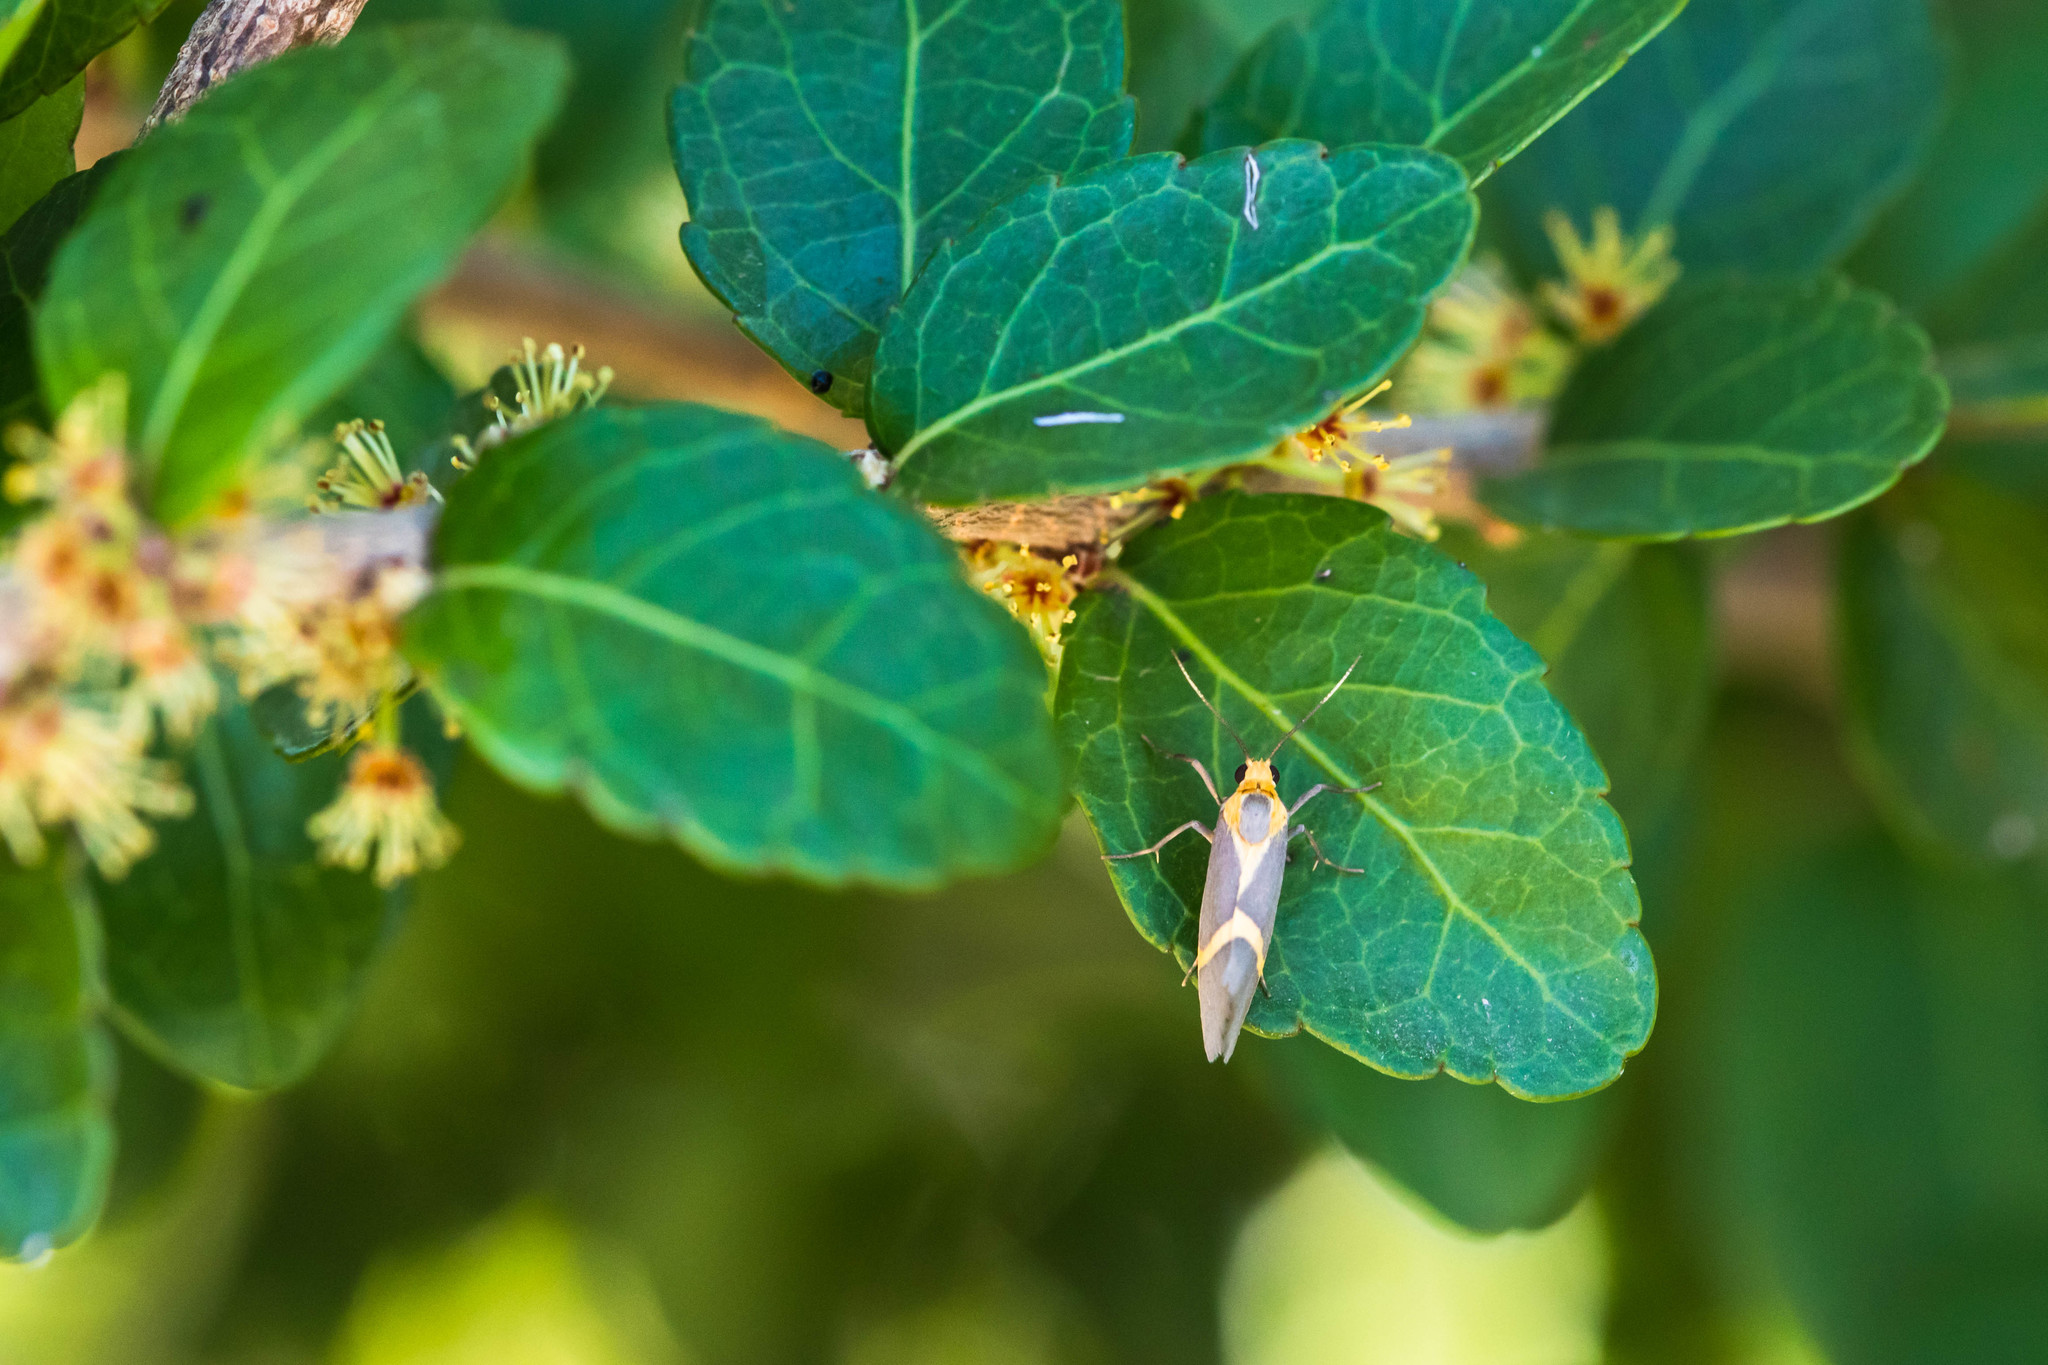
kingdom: Animalia
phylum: Arthropoda
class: Insecta
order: Lepidoptera
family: Erebidae
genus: Cisthene
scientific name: Cisthene tenuifascia
